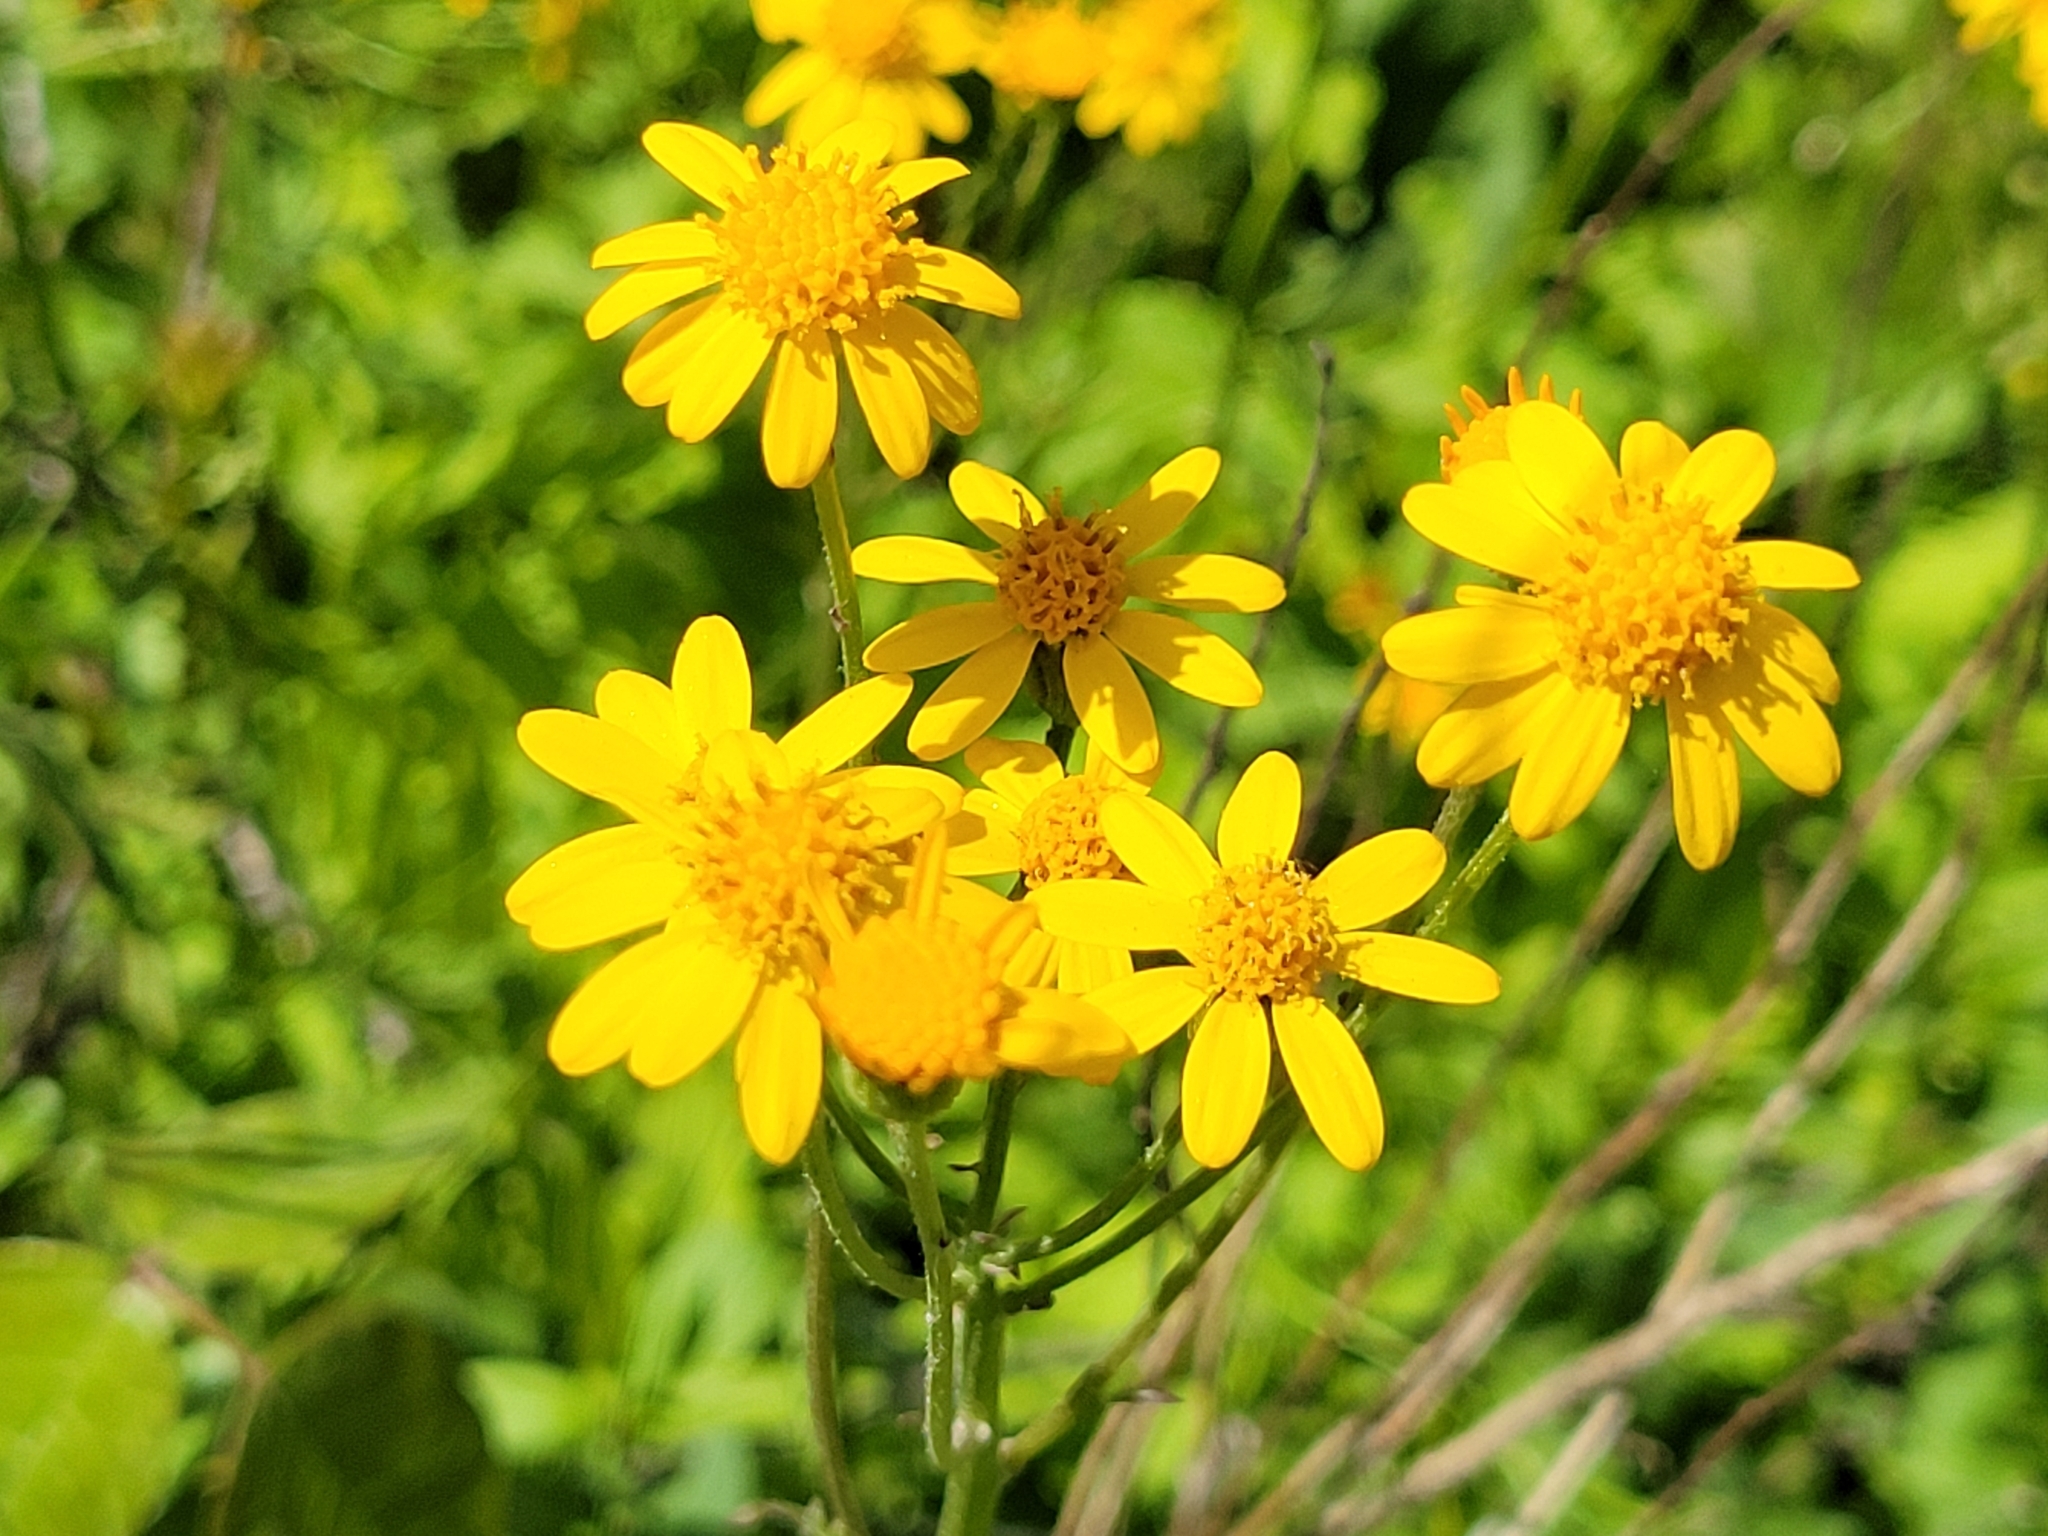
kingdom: Plantae
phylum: Tracheophyta
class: Magnoliopsida
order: Asterales
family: Asteraceae
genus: Packera
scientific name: Packera aurea
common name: Golden groundsel
